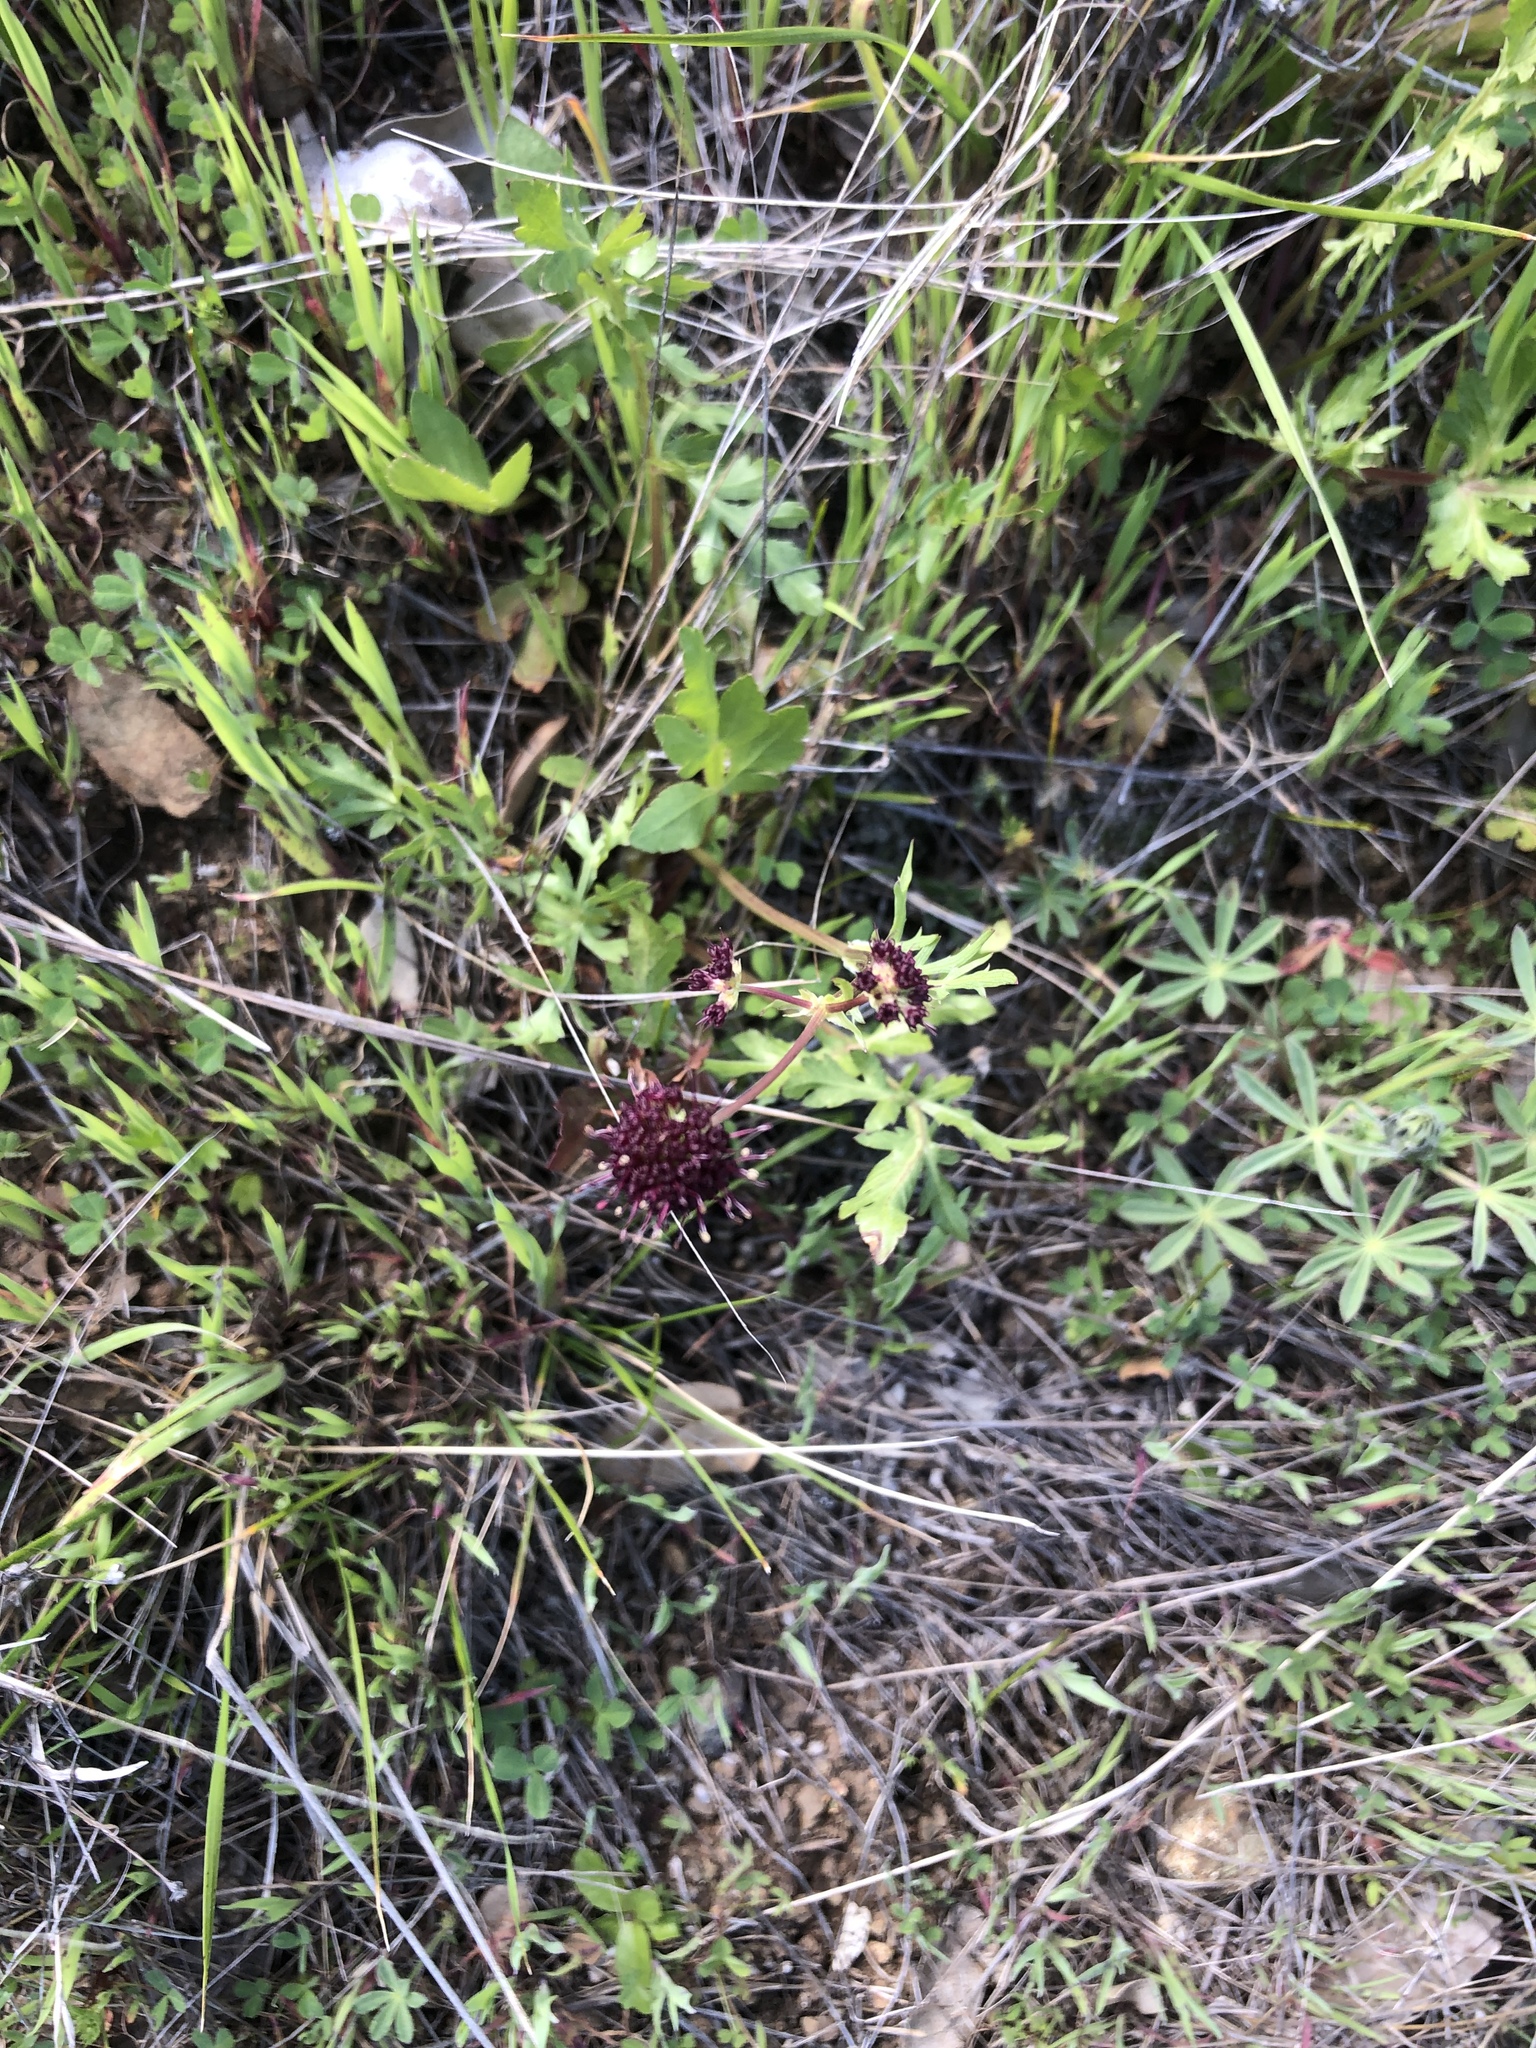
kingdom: Plantae
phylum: Tracheophyta
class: Magnoliopsida
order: Apiales
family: Apiaceae
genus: Sanicula
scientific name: Sanicula bipinnatifida
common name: Shoe-buttons
